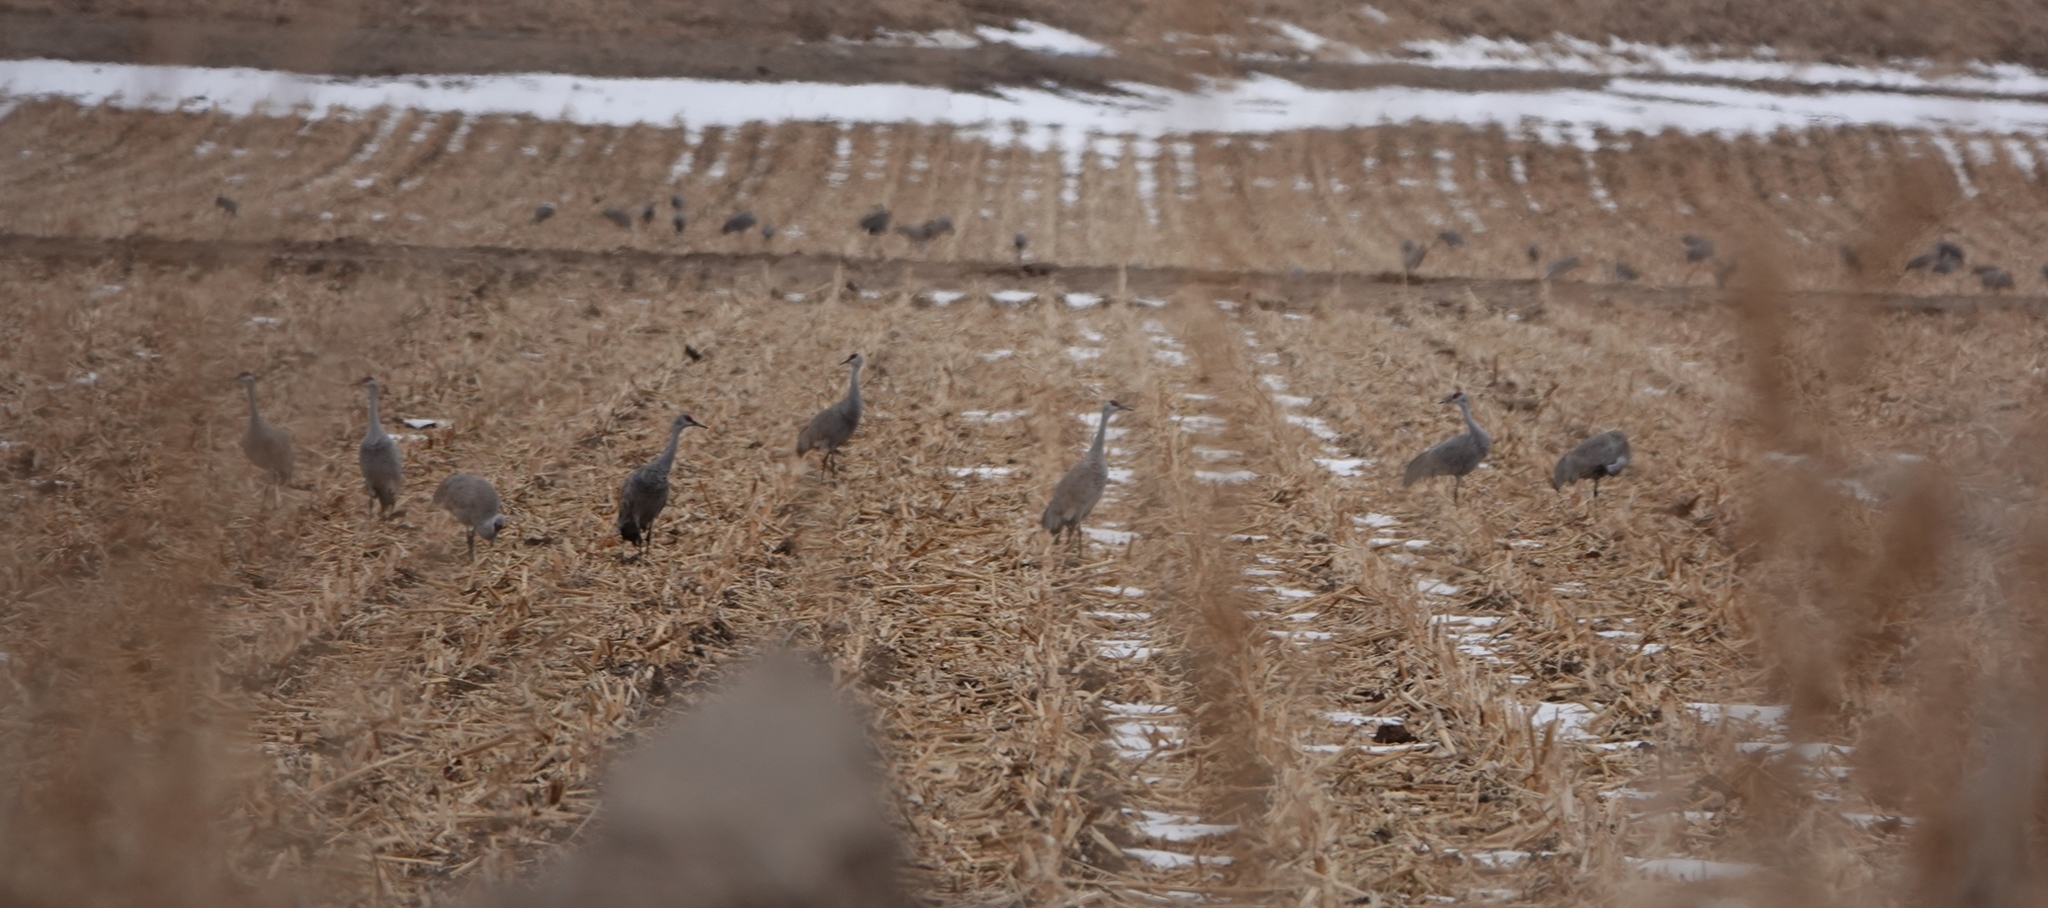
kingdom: Animalia
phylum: Chordata
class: Aves
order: Gruiformes
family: Gruidae
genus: Grus
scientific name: Grus canadensis
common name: Sandhill crane
